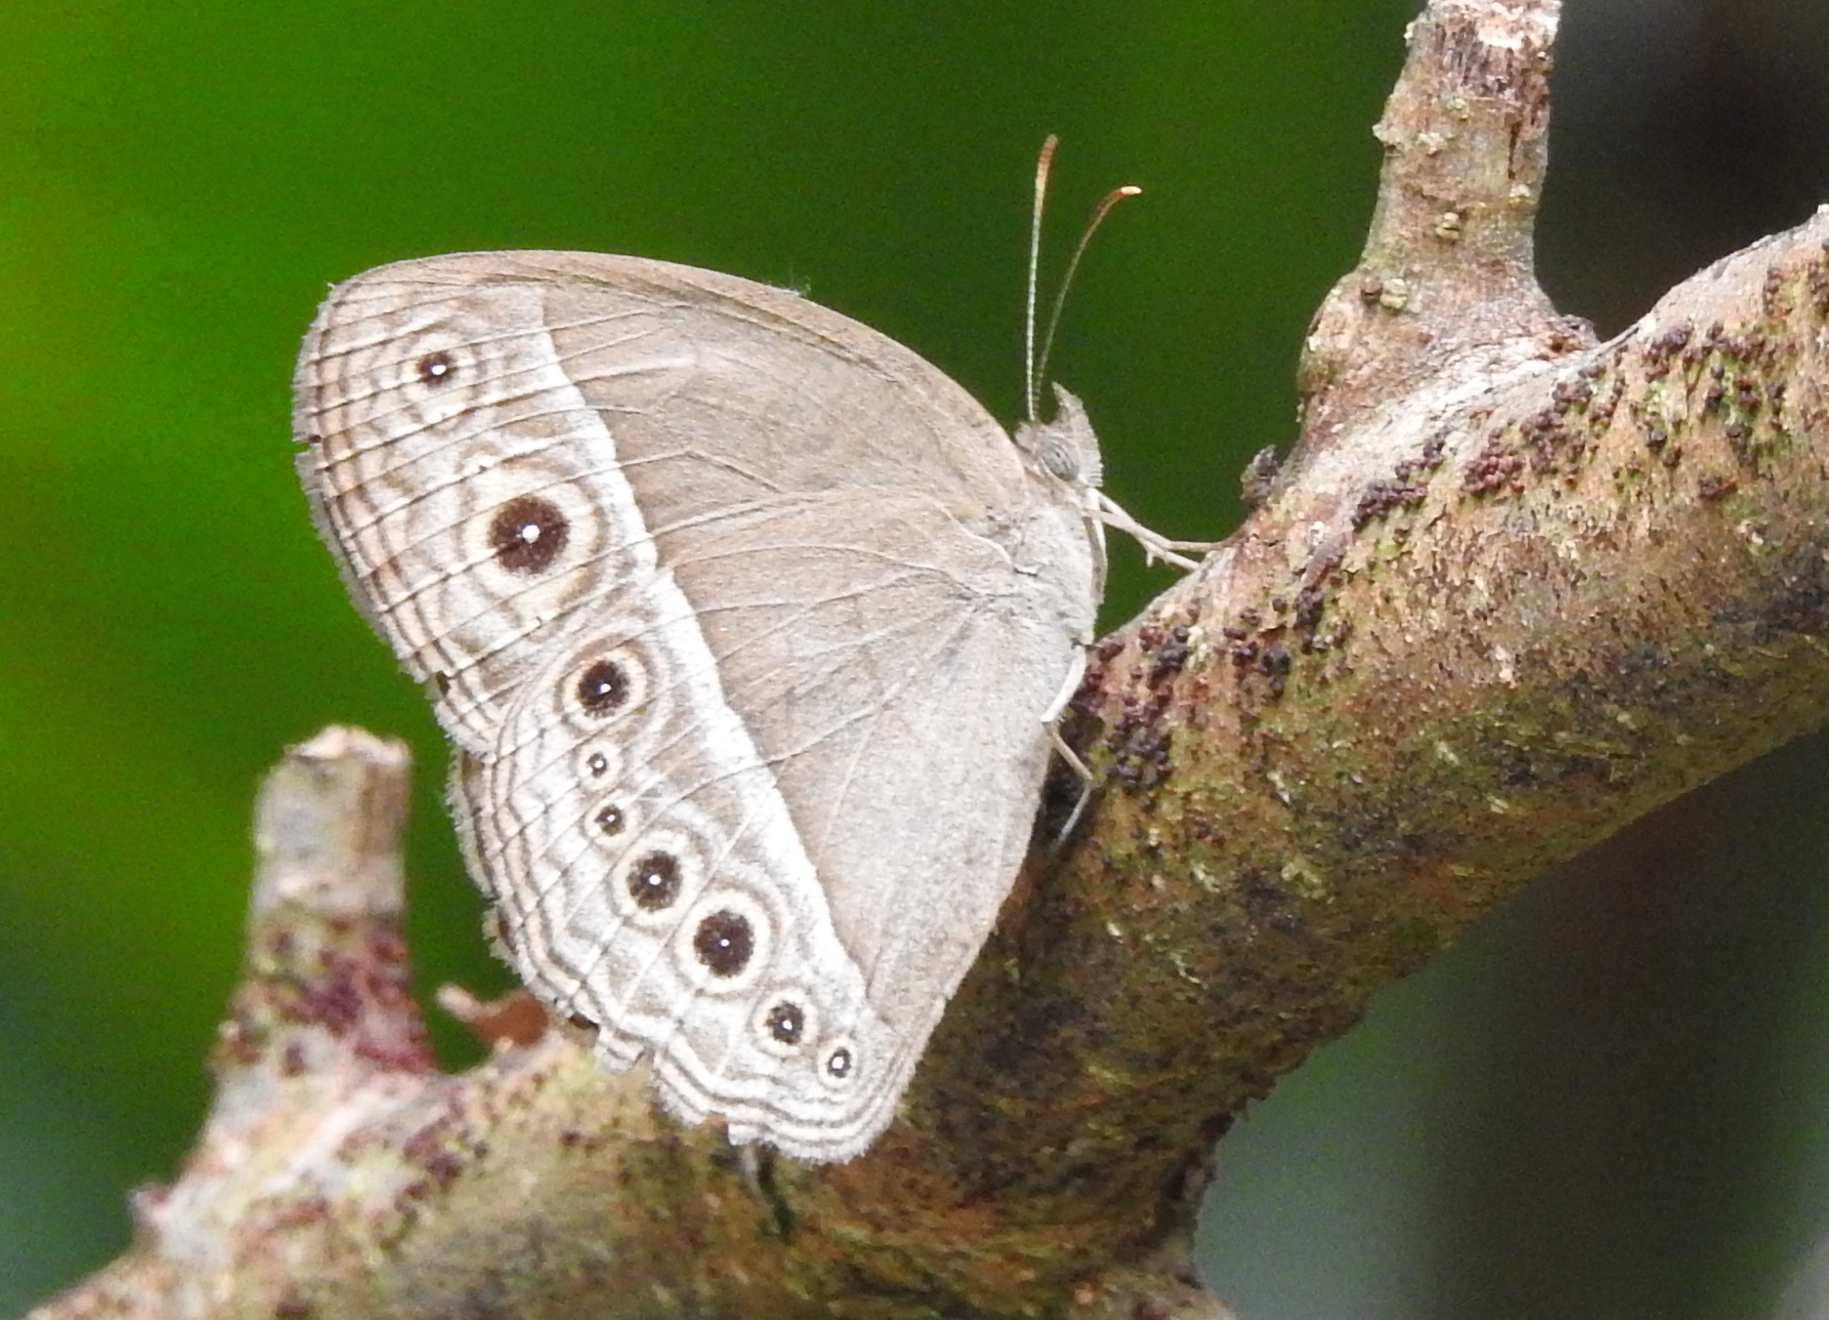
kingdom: Animalia
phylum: Arthropoda
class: Insecta
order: Lepidoptera
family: Nymphalidae
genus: Mycalesis
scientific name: Mycalesis visala
